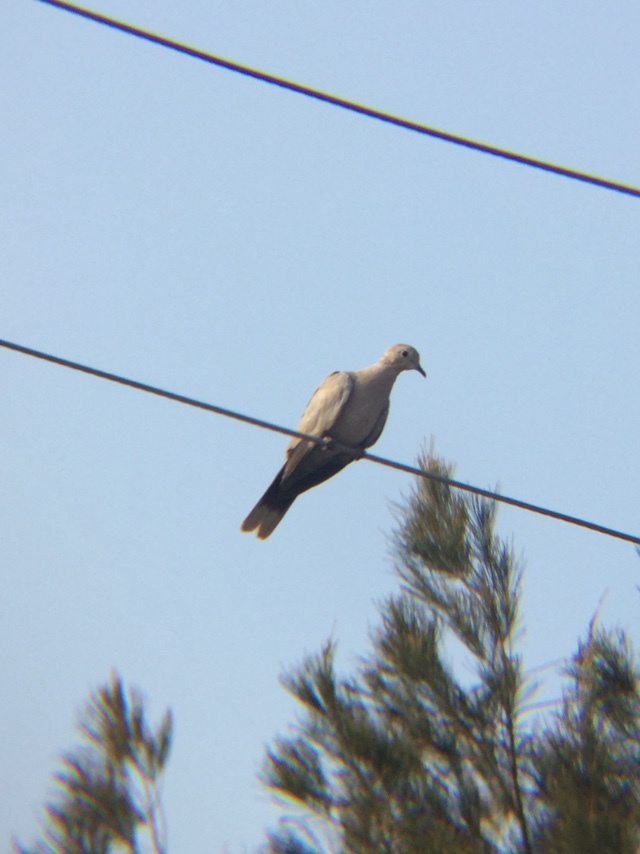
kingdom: Animalia
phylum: Chordata
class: Aves
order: Columbiformes
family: Columbidae
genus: Streptopelia
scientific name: Streptopelia decaocto
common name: Eurasian collared dove
